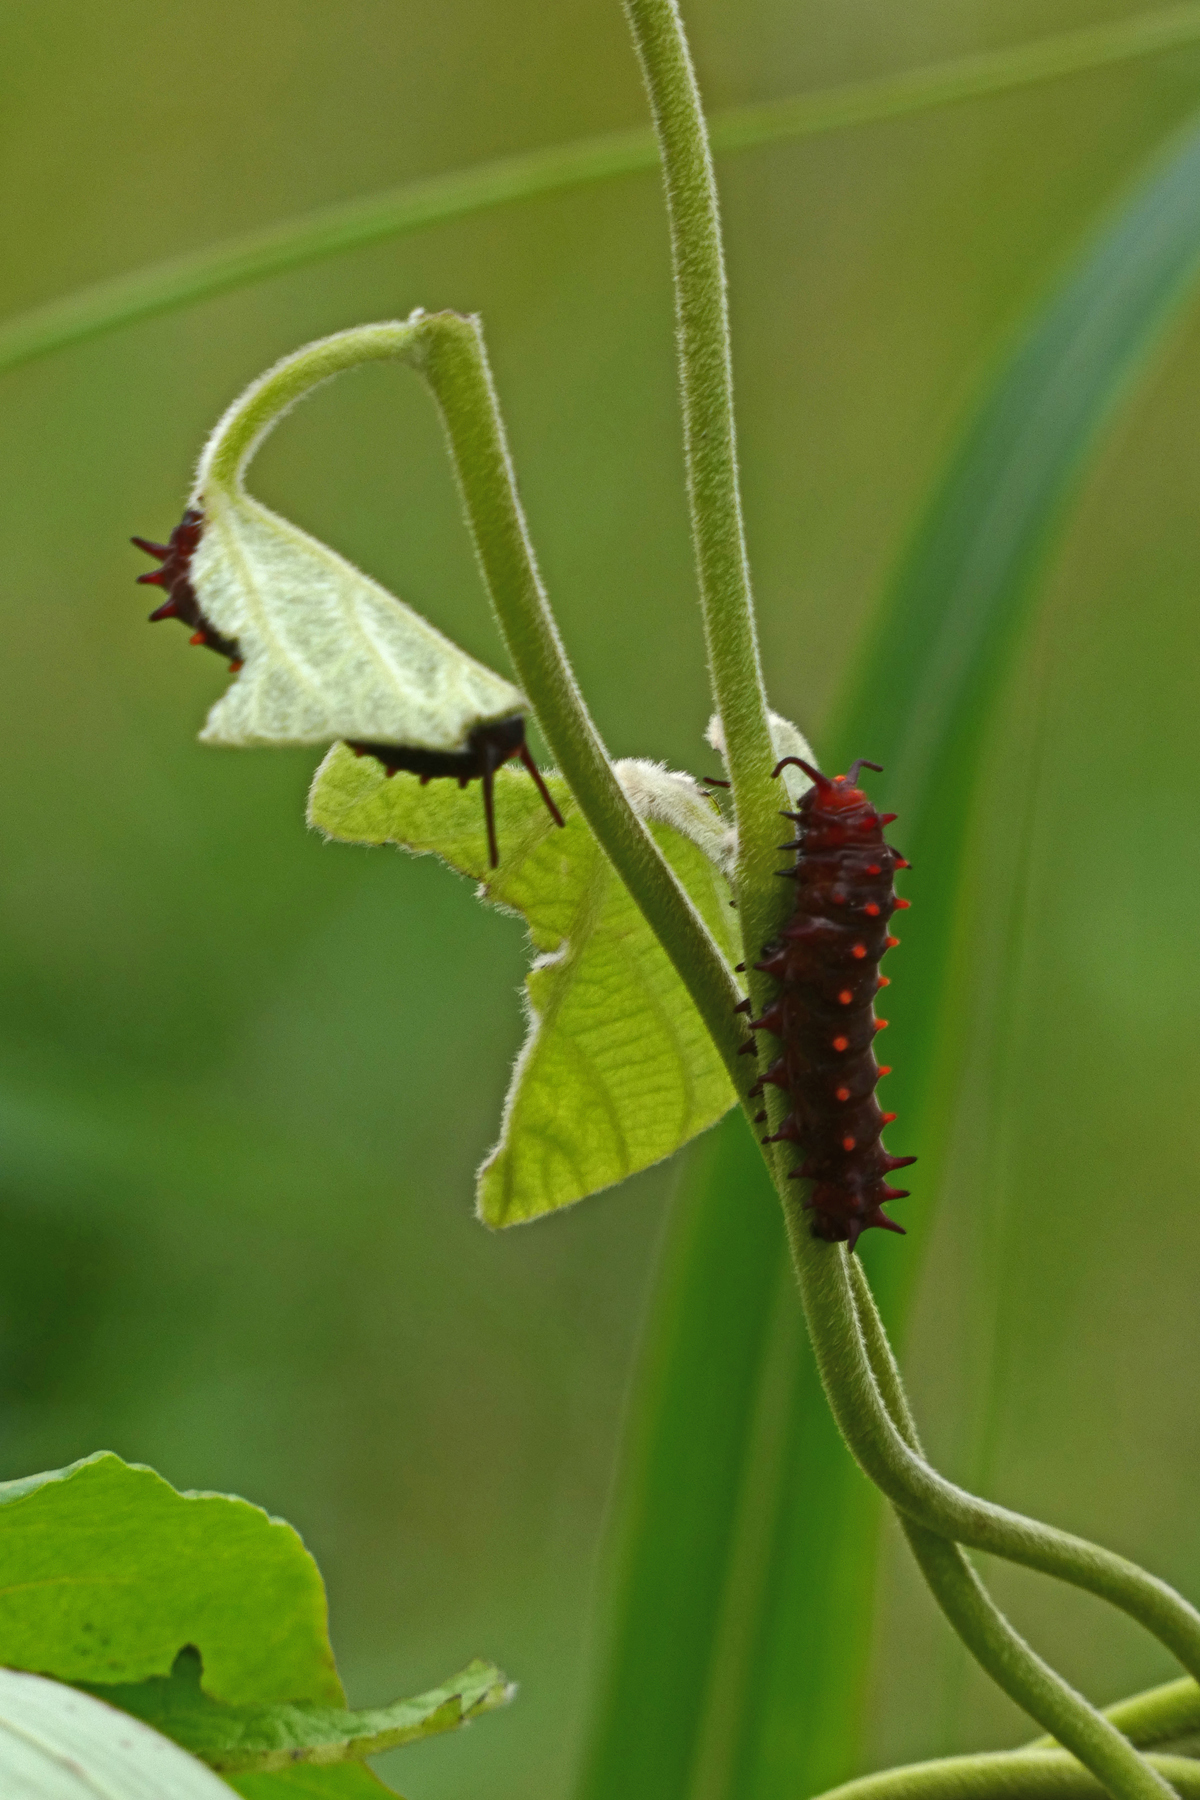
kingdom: Animalia
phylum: Arthropoda
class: Insecta
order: Lepidoptera
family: Papilionidae
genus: Battus
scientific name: Battus philenor
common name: Pipevine swallowtail
